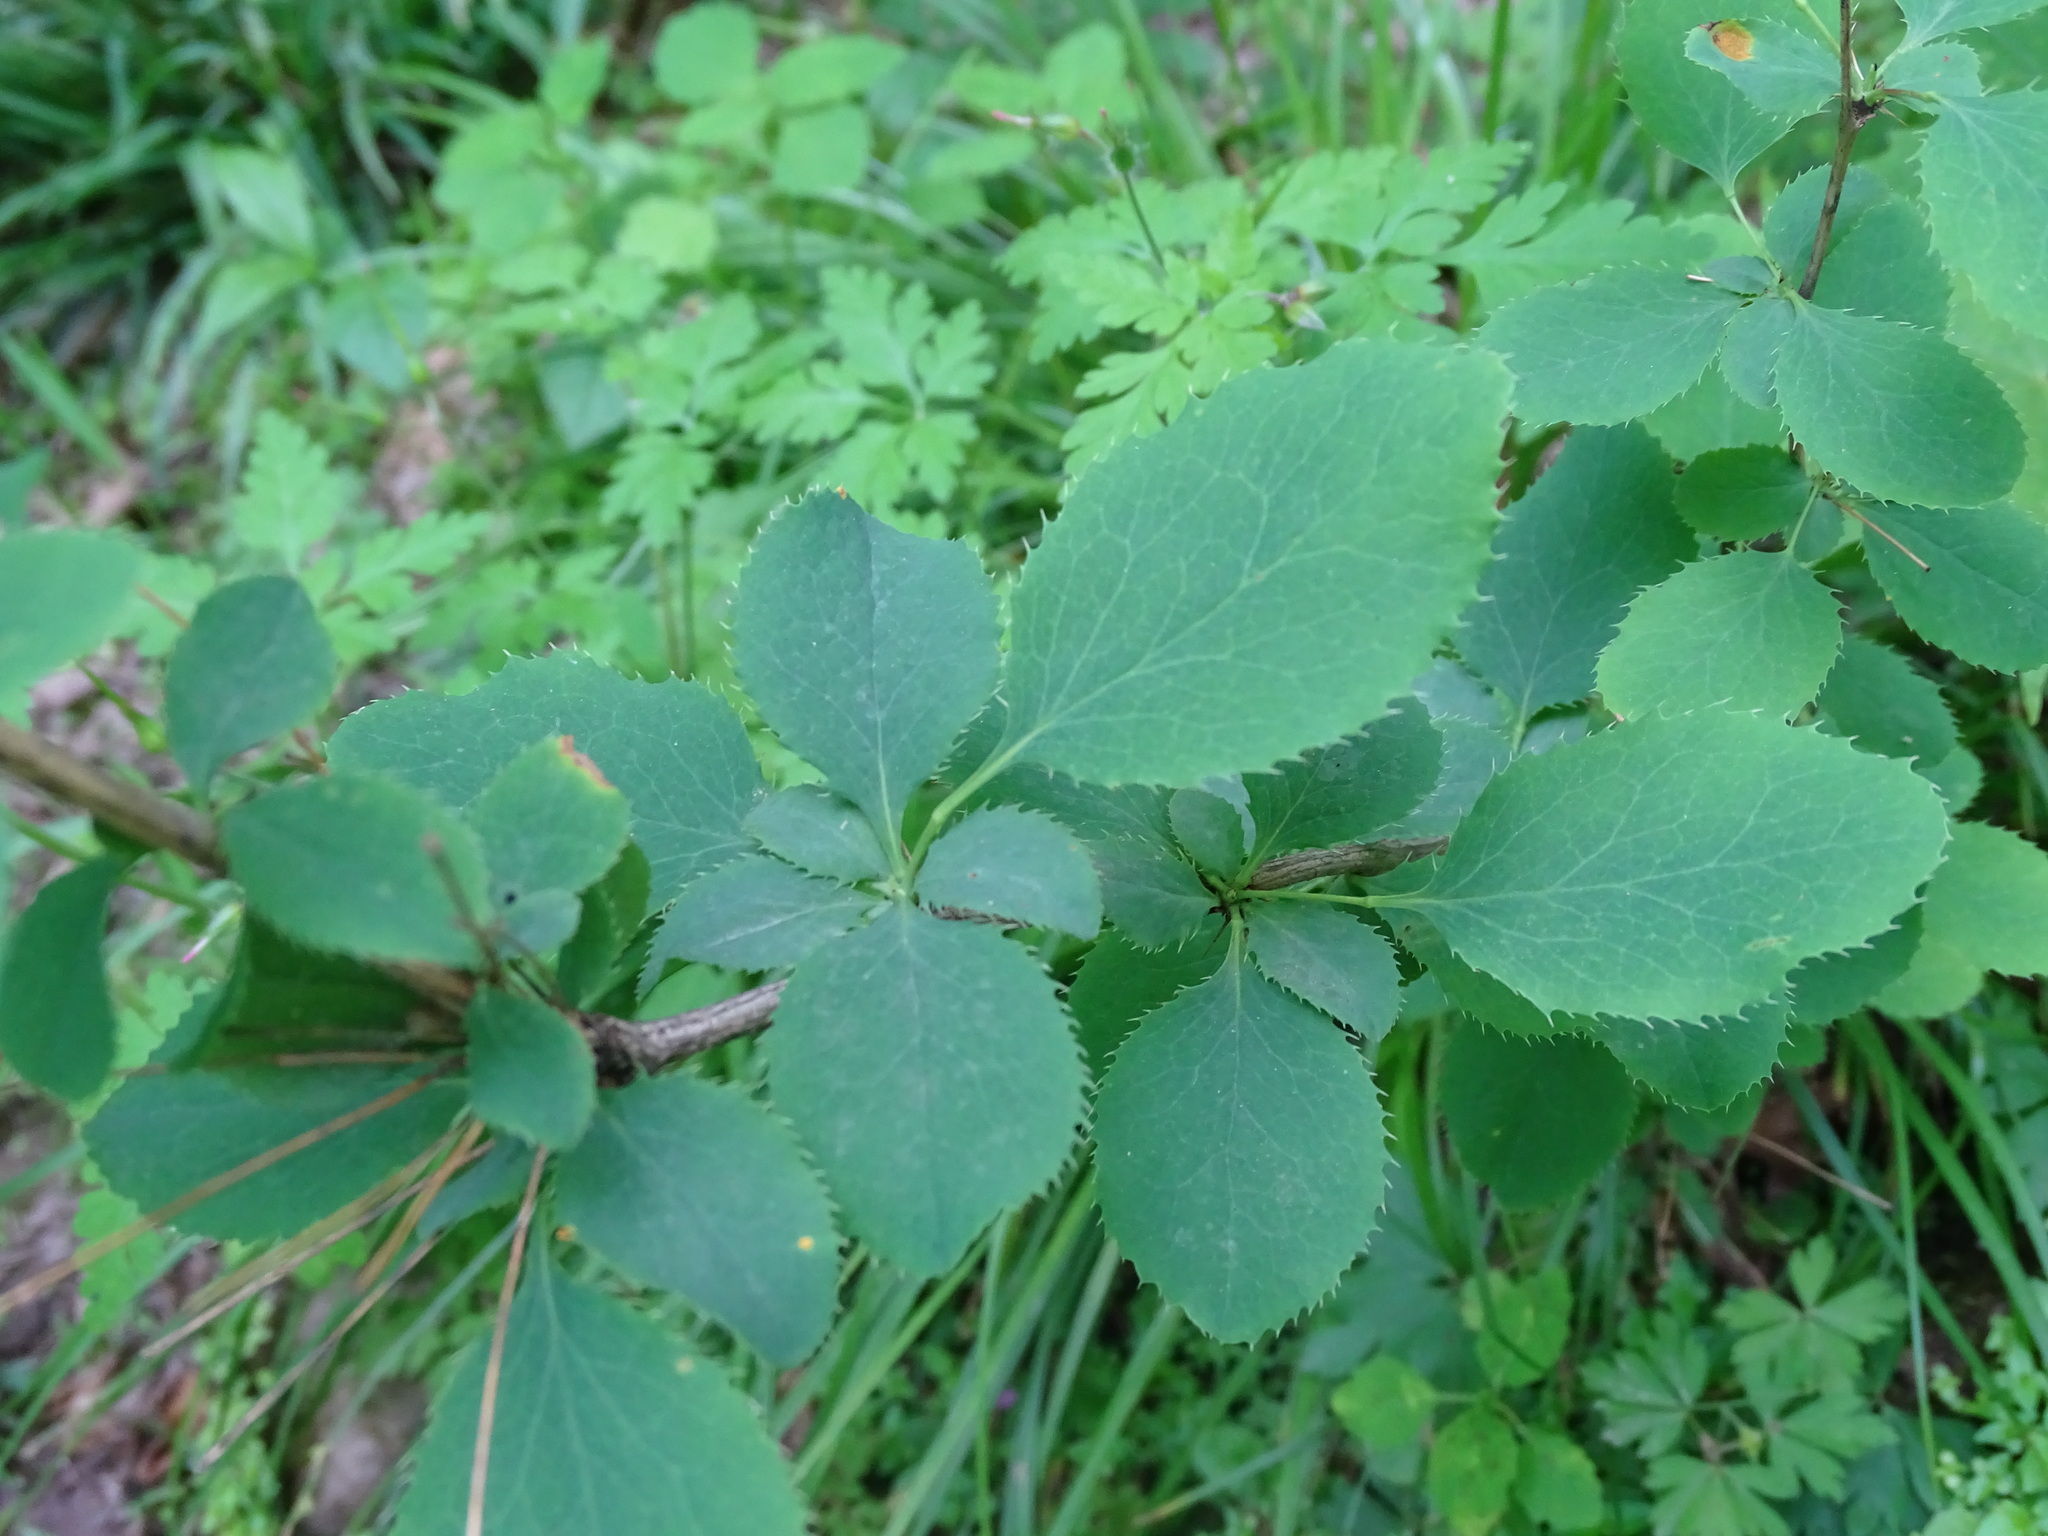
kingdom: Plantae
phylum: Tracheophyta
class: Magnoliopsida
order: Ranunculales
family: Berberidaceae
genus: Berberis
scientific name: Berberis vulgaris
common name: Barberry
